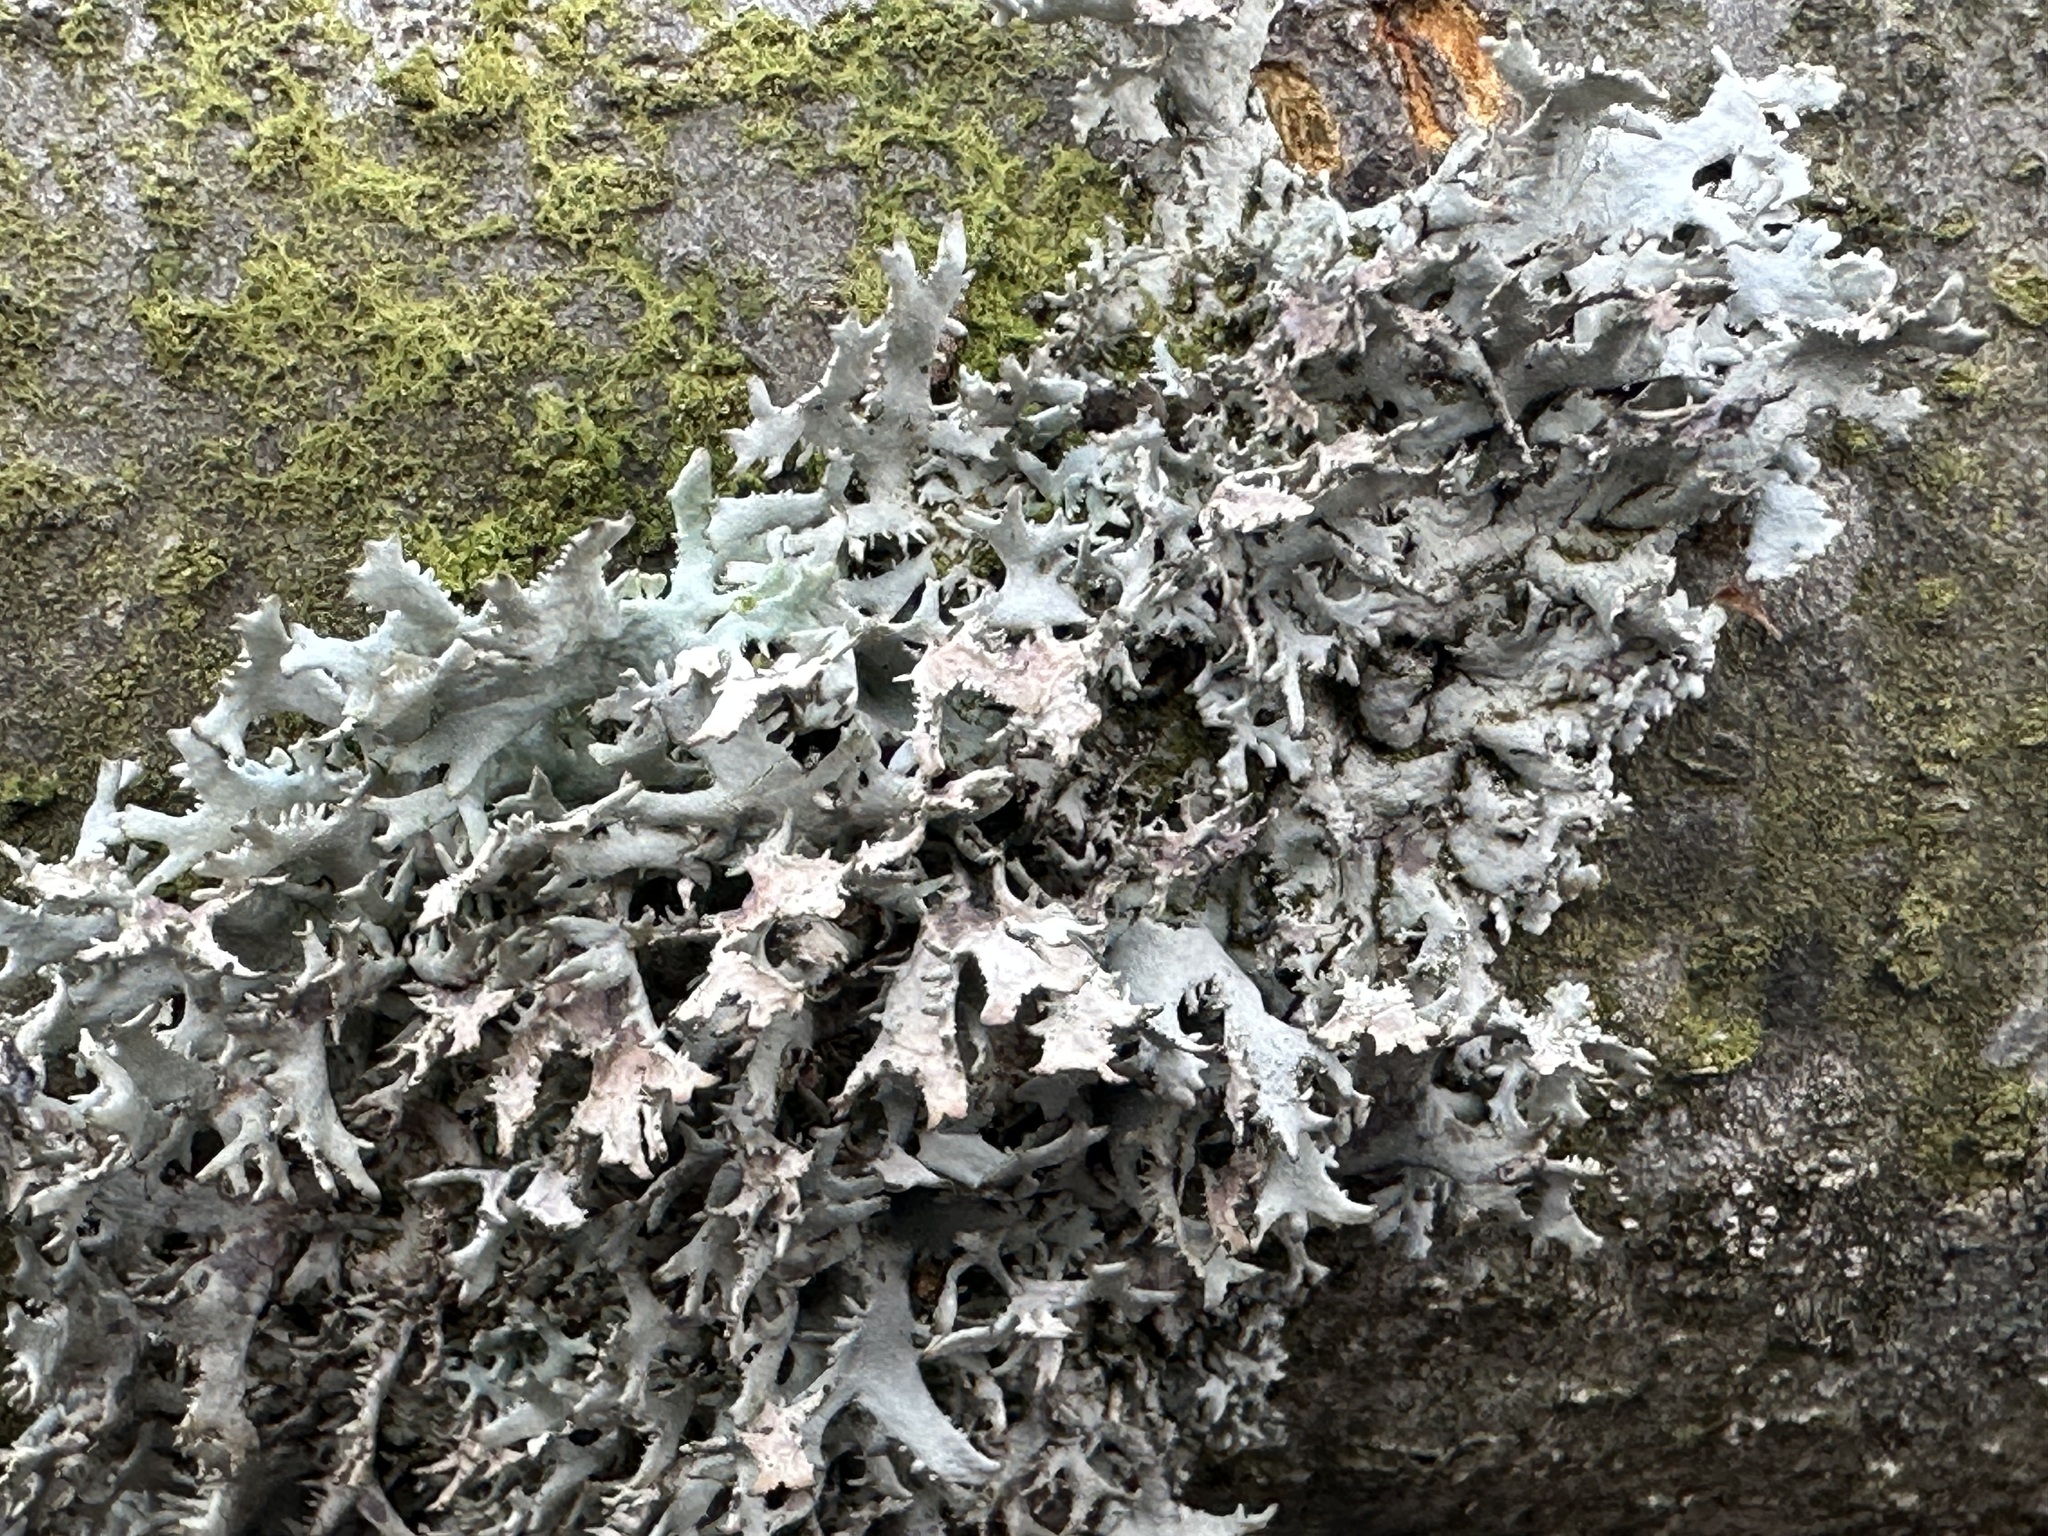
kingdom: Fungi
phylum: Ascomycota
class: Lecanoromycetes
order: Lecanorales
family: Parmeliaceae
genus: Pseudevernia
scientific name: Pseudevernia furfuracea
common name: Tree moss
